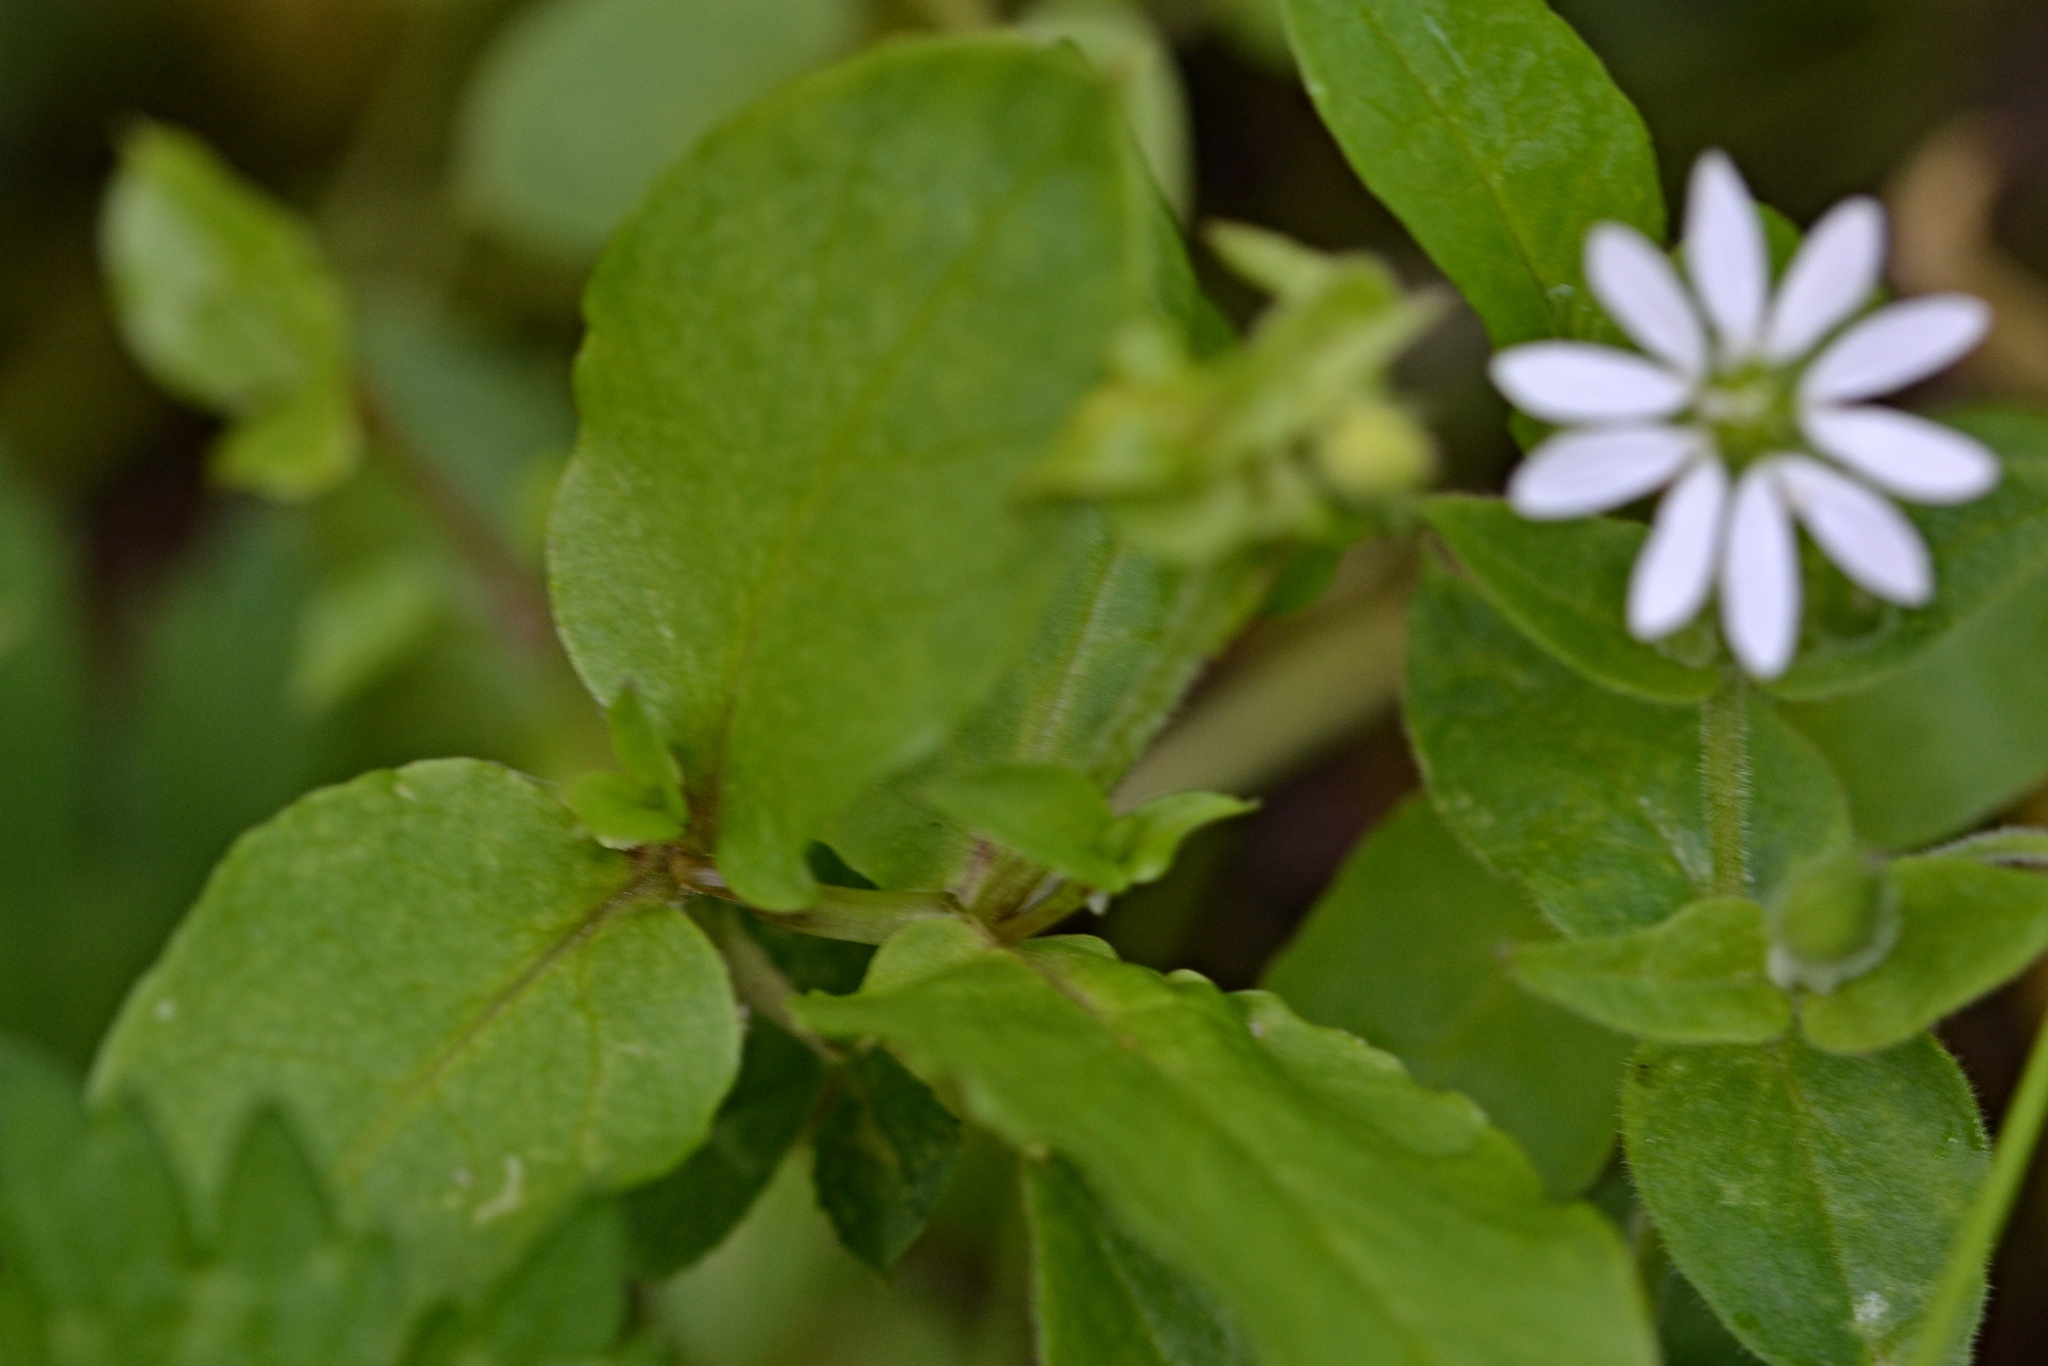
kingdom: Plantae
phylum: Tracheophyta
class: Magnoliopsida
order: Caryophyllales
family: Caryophyllaceae
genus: Stellaria
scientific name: Stellaria aquatica
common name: Water chickweed
